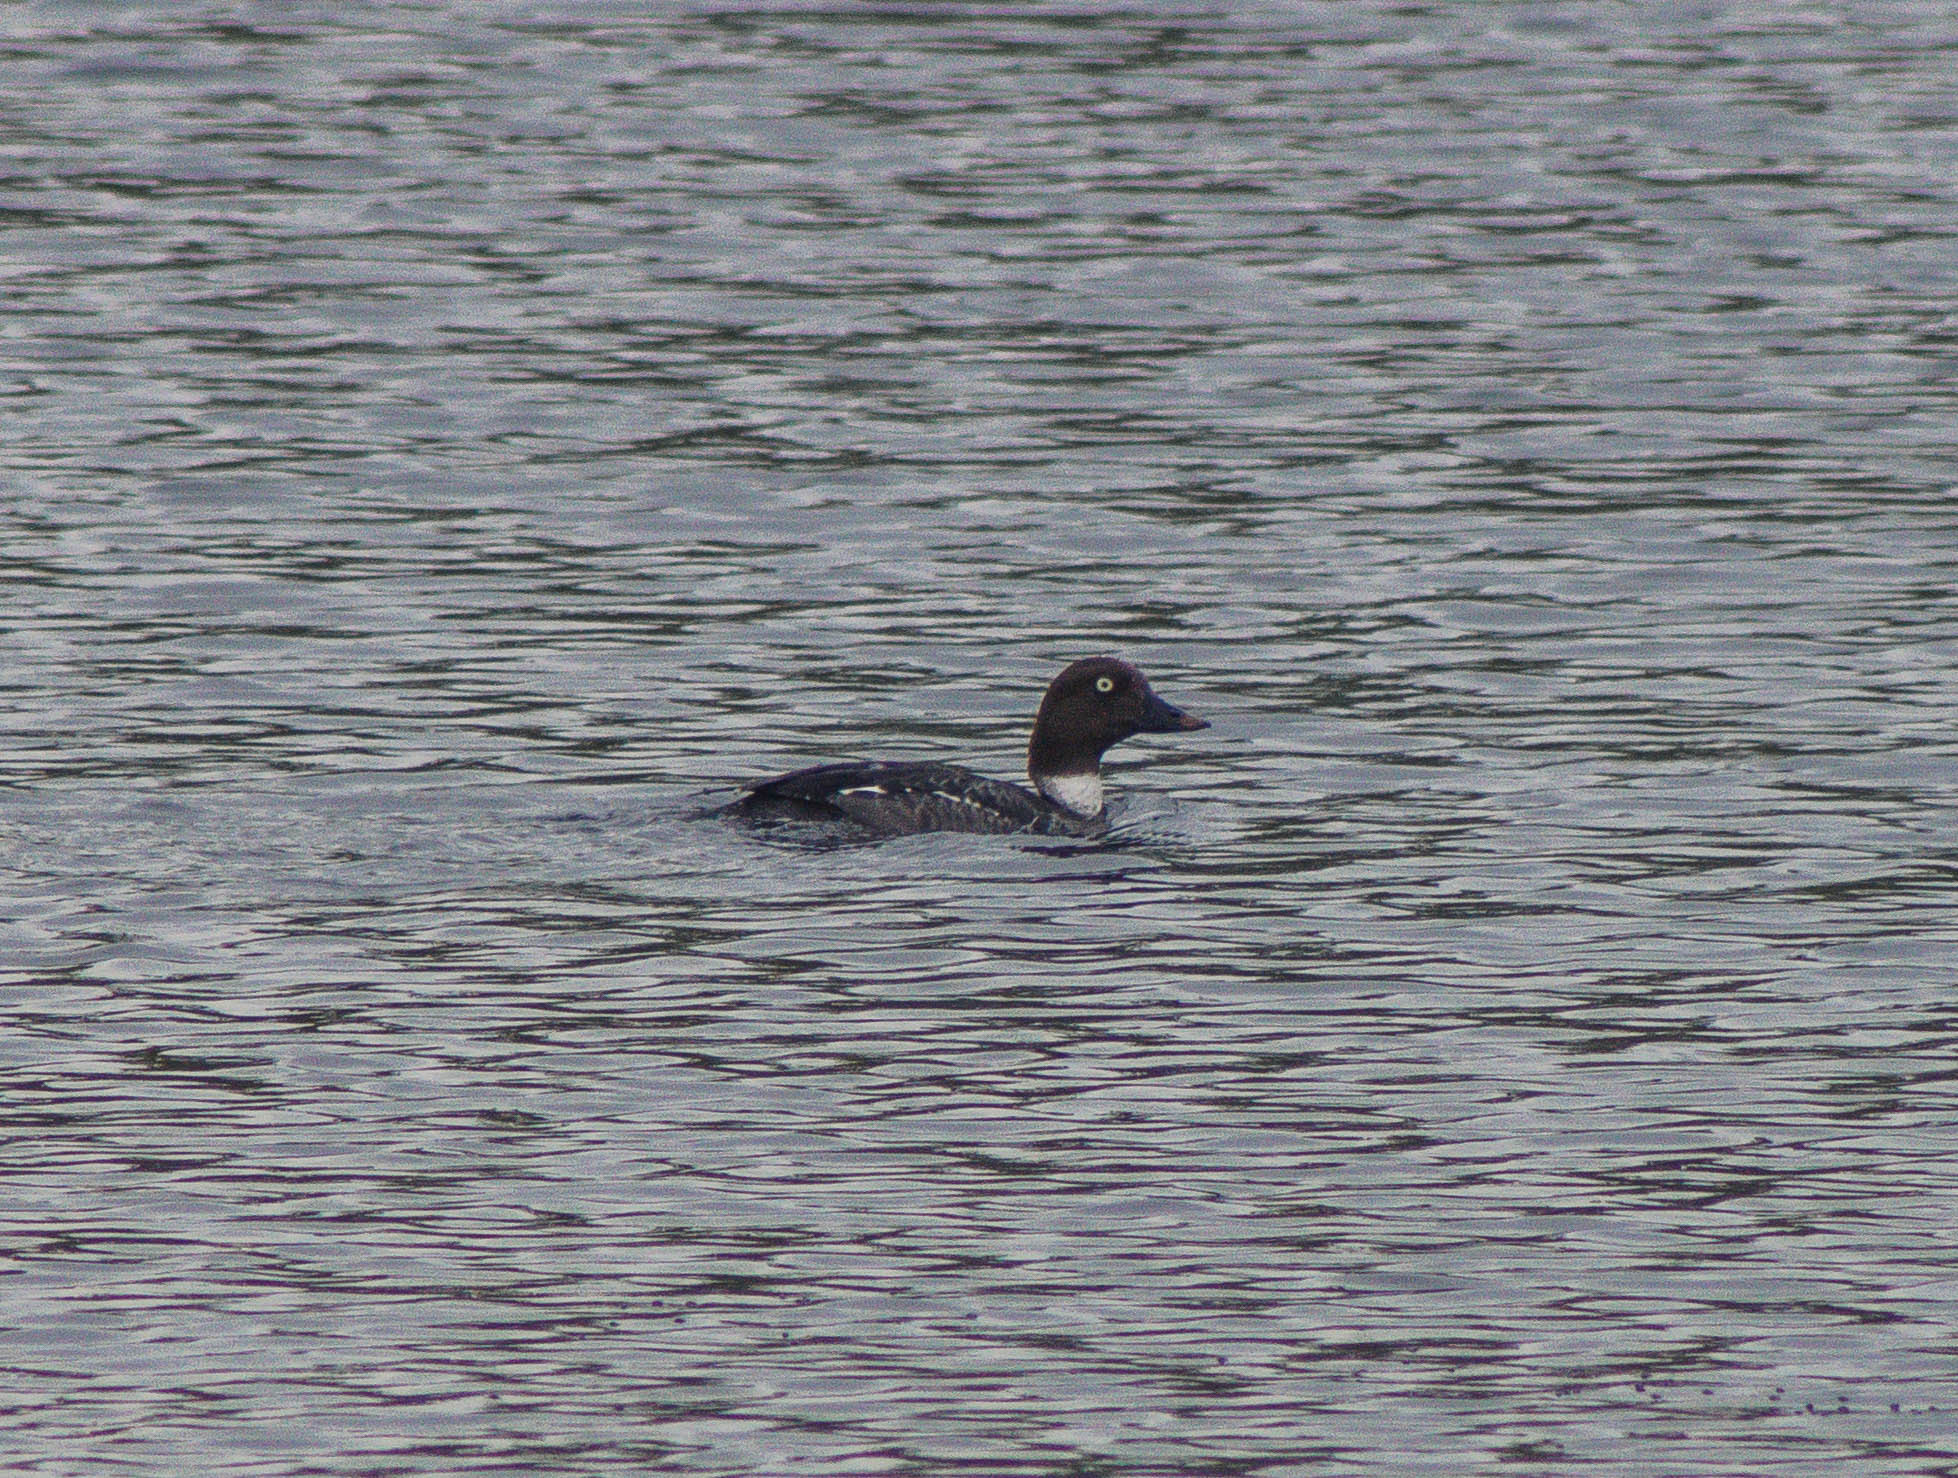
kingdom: Animalia
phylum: Chordata
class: Aves
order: Anseriformes
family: Anatidae
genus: Bucephala
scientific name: Bucephala clangula
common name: Common goldeneye
